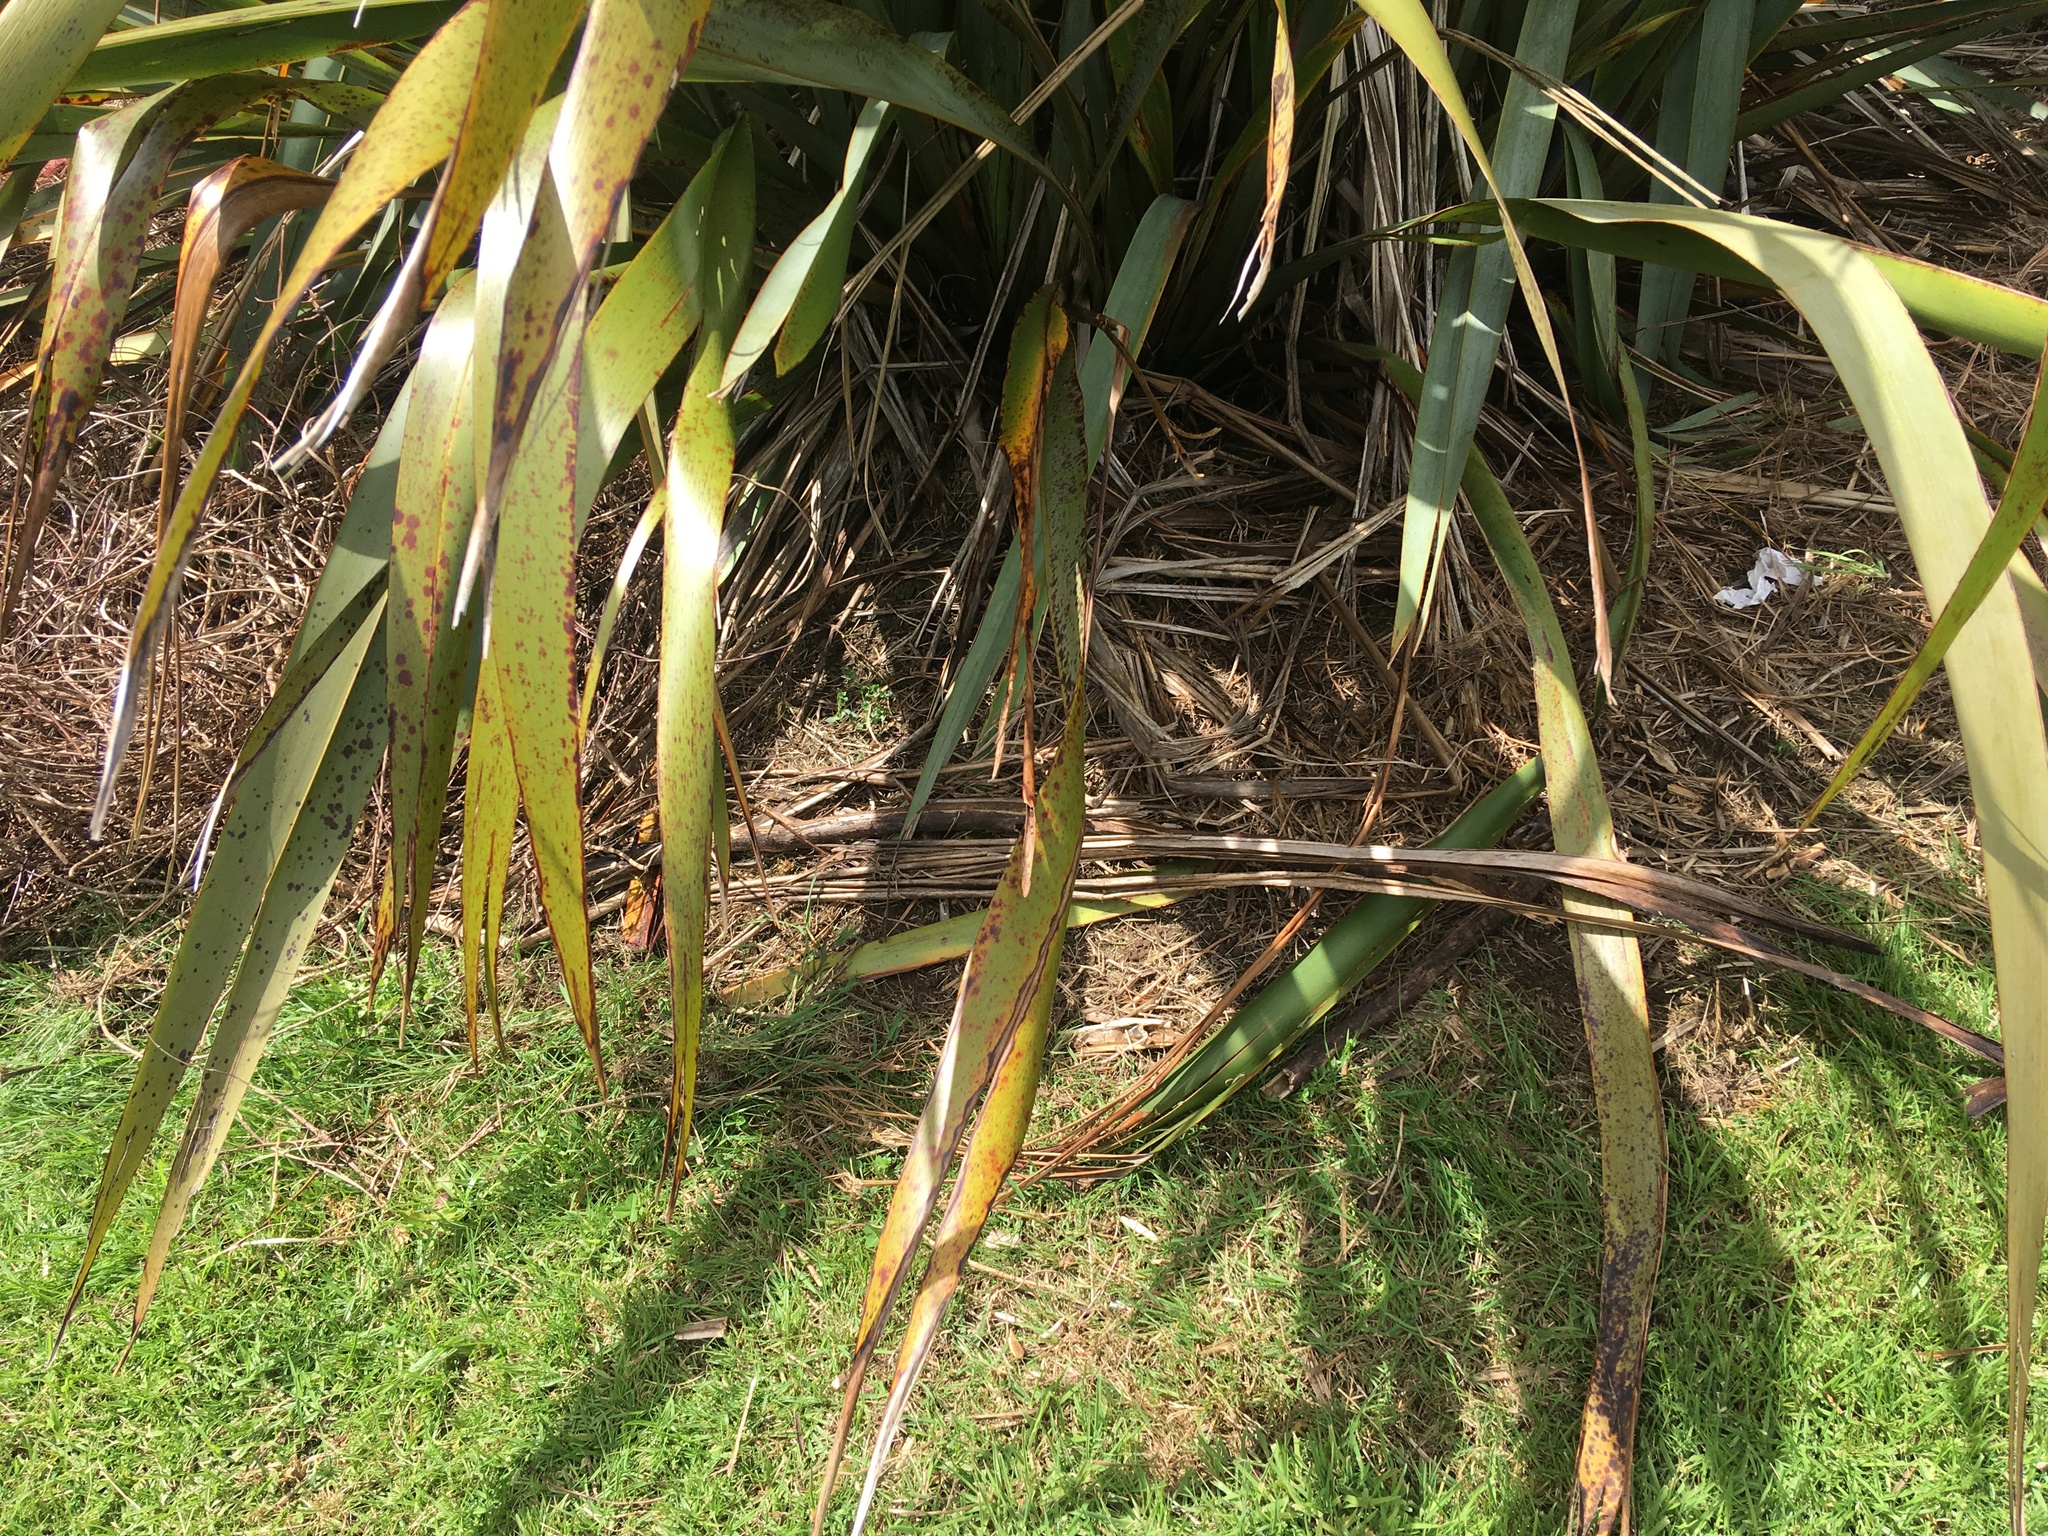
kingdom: Plantae
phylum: Tracheophyta
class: Liliopsida
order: Poales
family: Poaceae
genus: Cenchrus
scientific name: Cenchrus clandestinus
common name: Kikuyugrass
